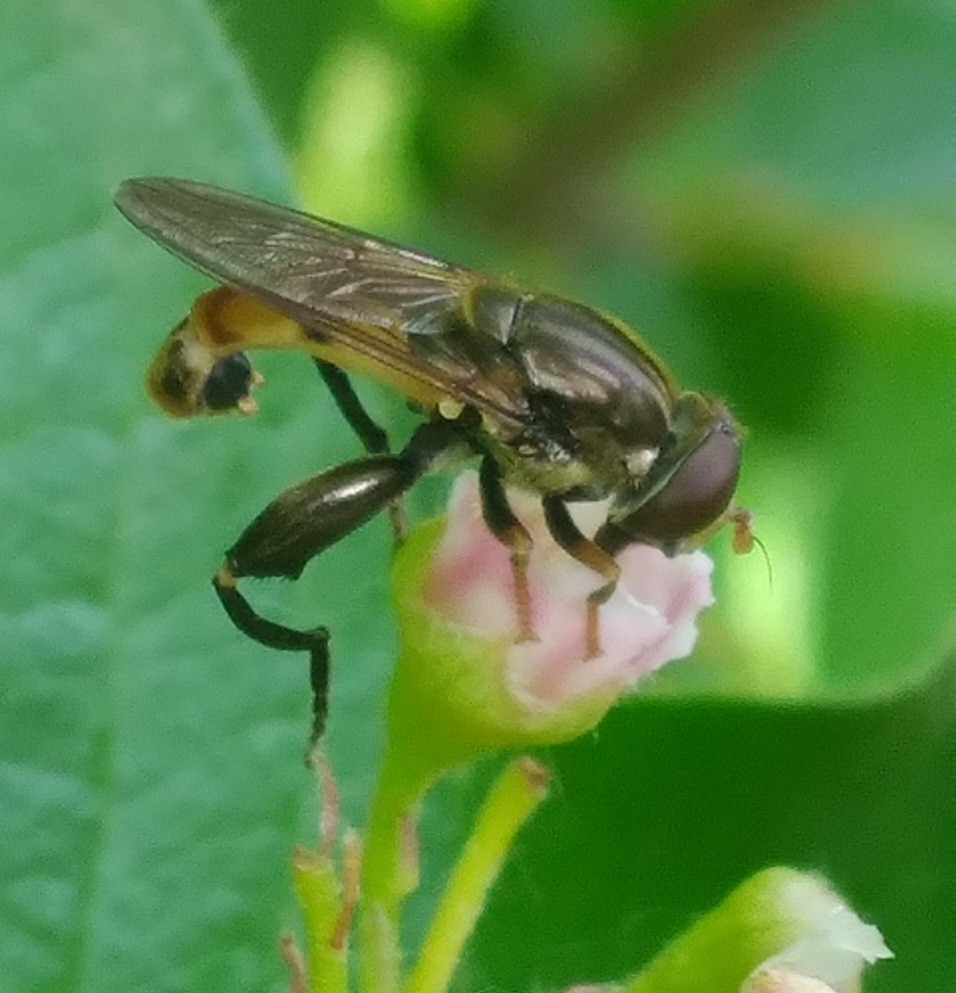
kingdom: Animalia
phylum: Arthropoda
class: Insecta
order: Diptera
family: Syrphidae
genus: Tropidia
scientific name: Tropidia quadrata
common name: Common thick-legged fly
